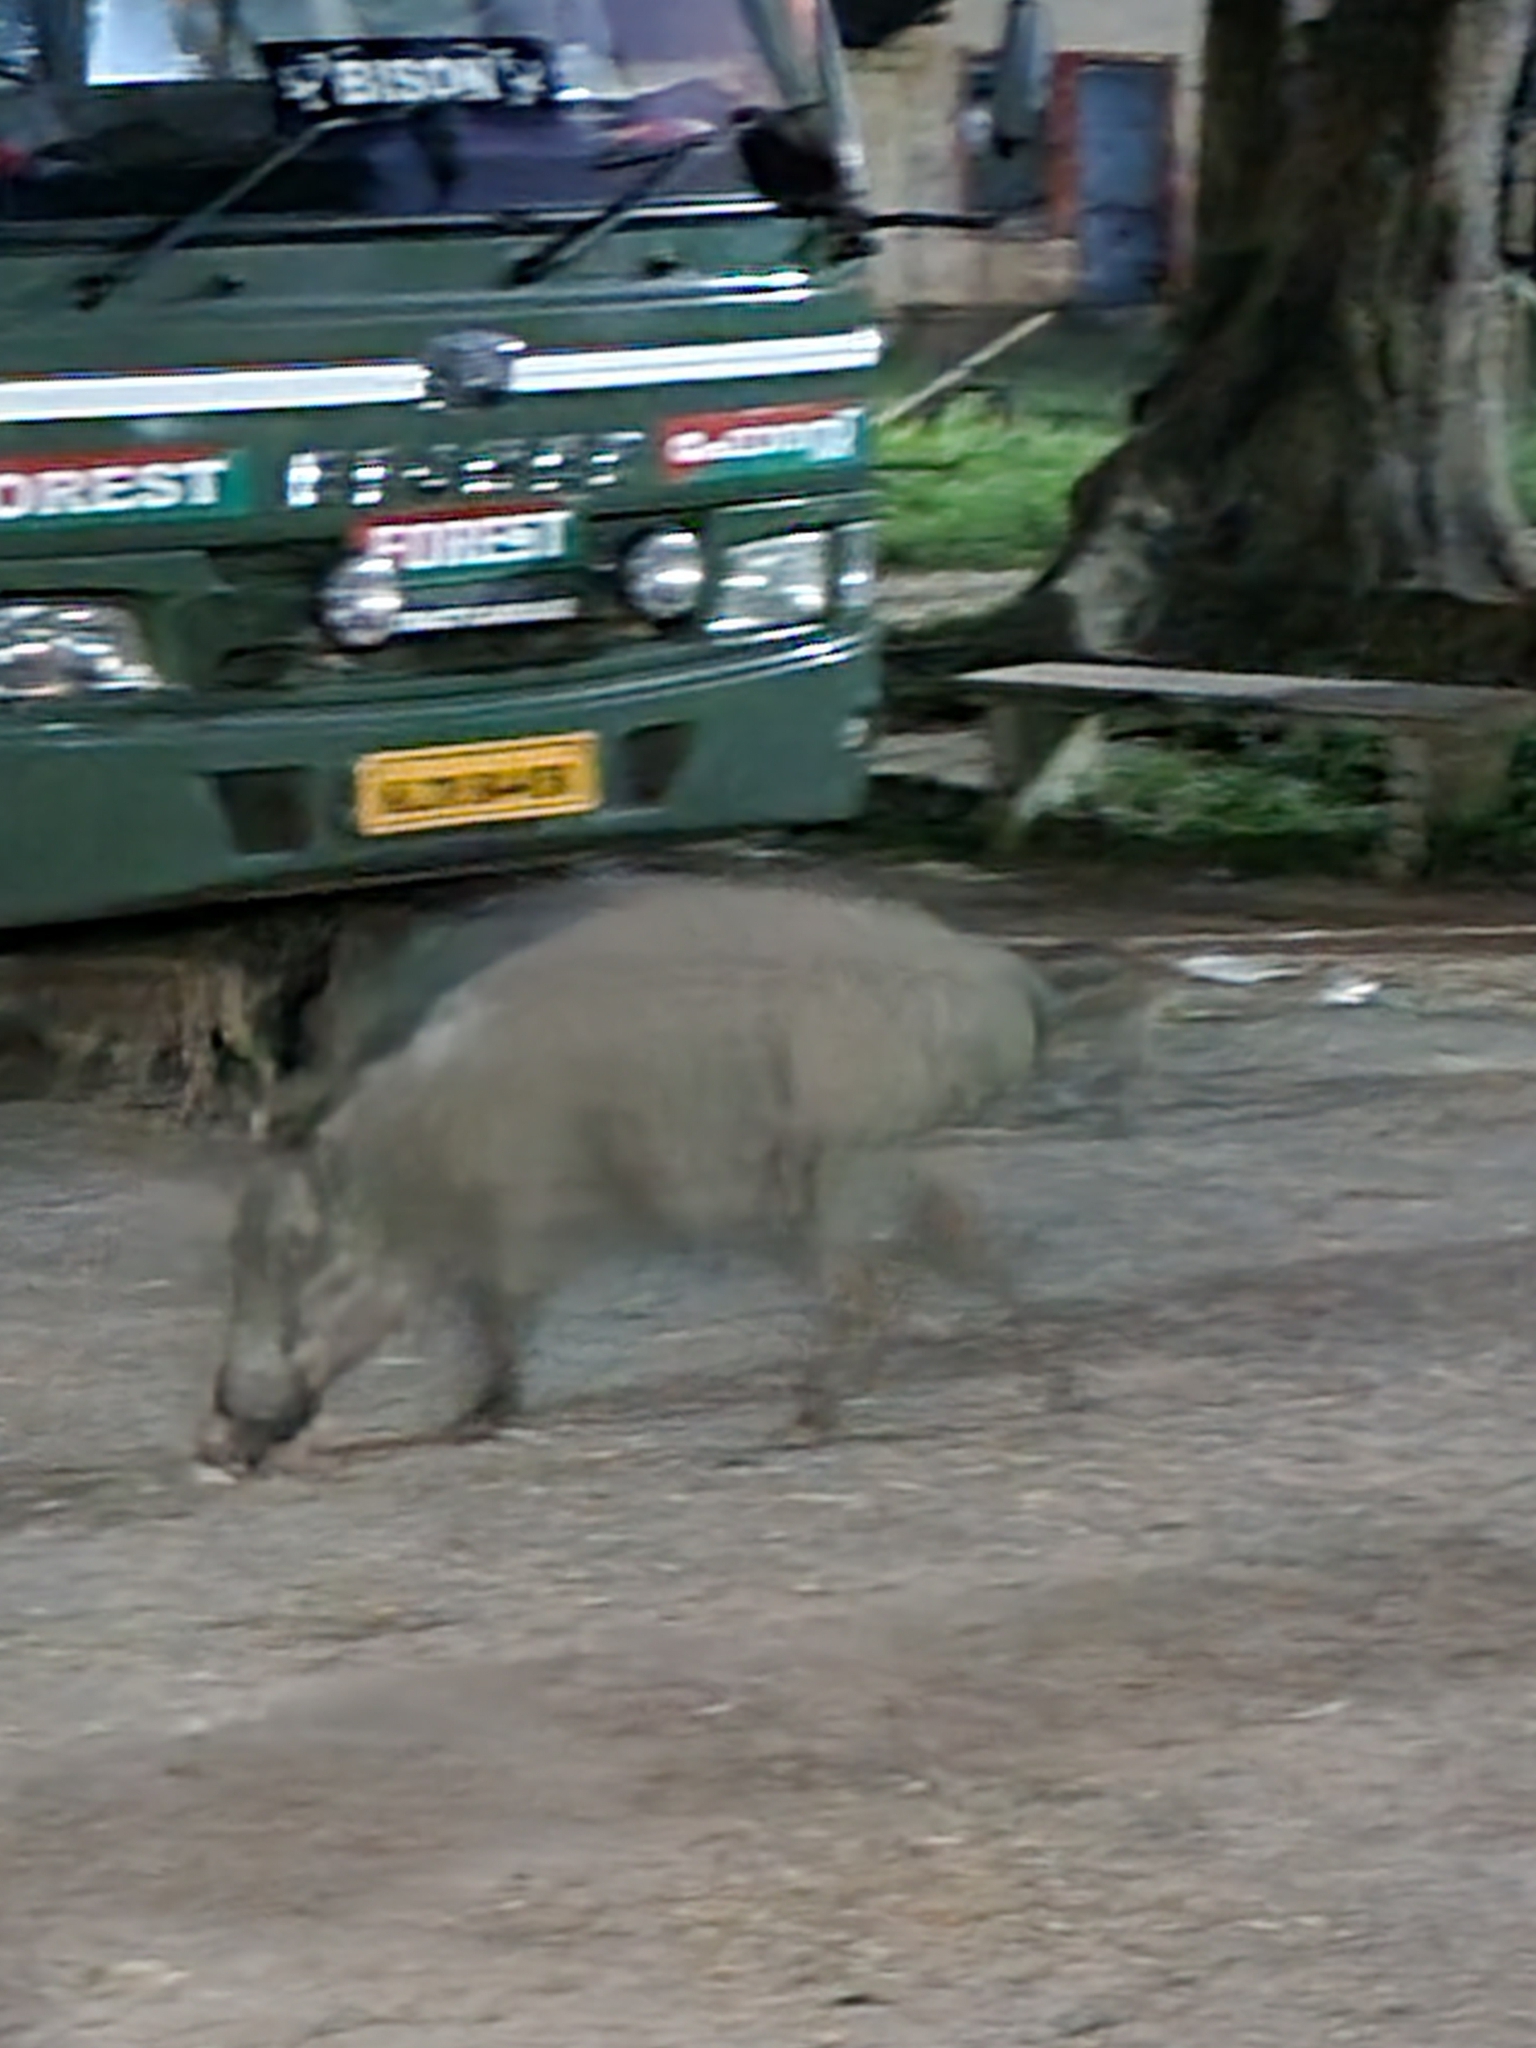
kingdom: Animalia
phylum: Chordata
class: Mammalia
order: Artiodactyla
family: Suidae
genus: Sus
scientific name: Sus scrofa
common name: Wild boar
